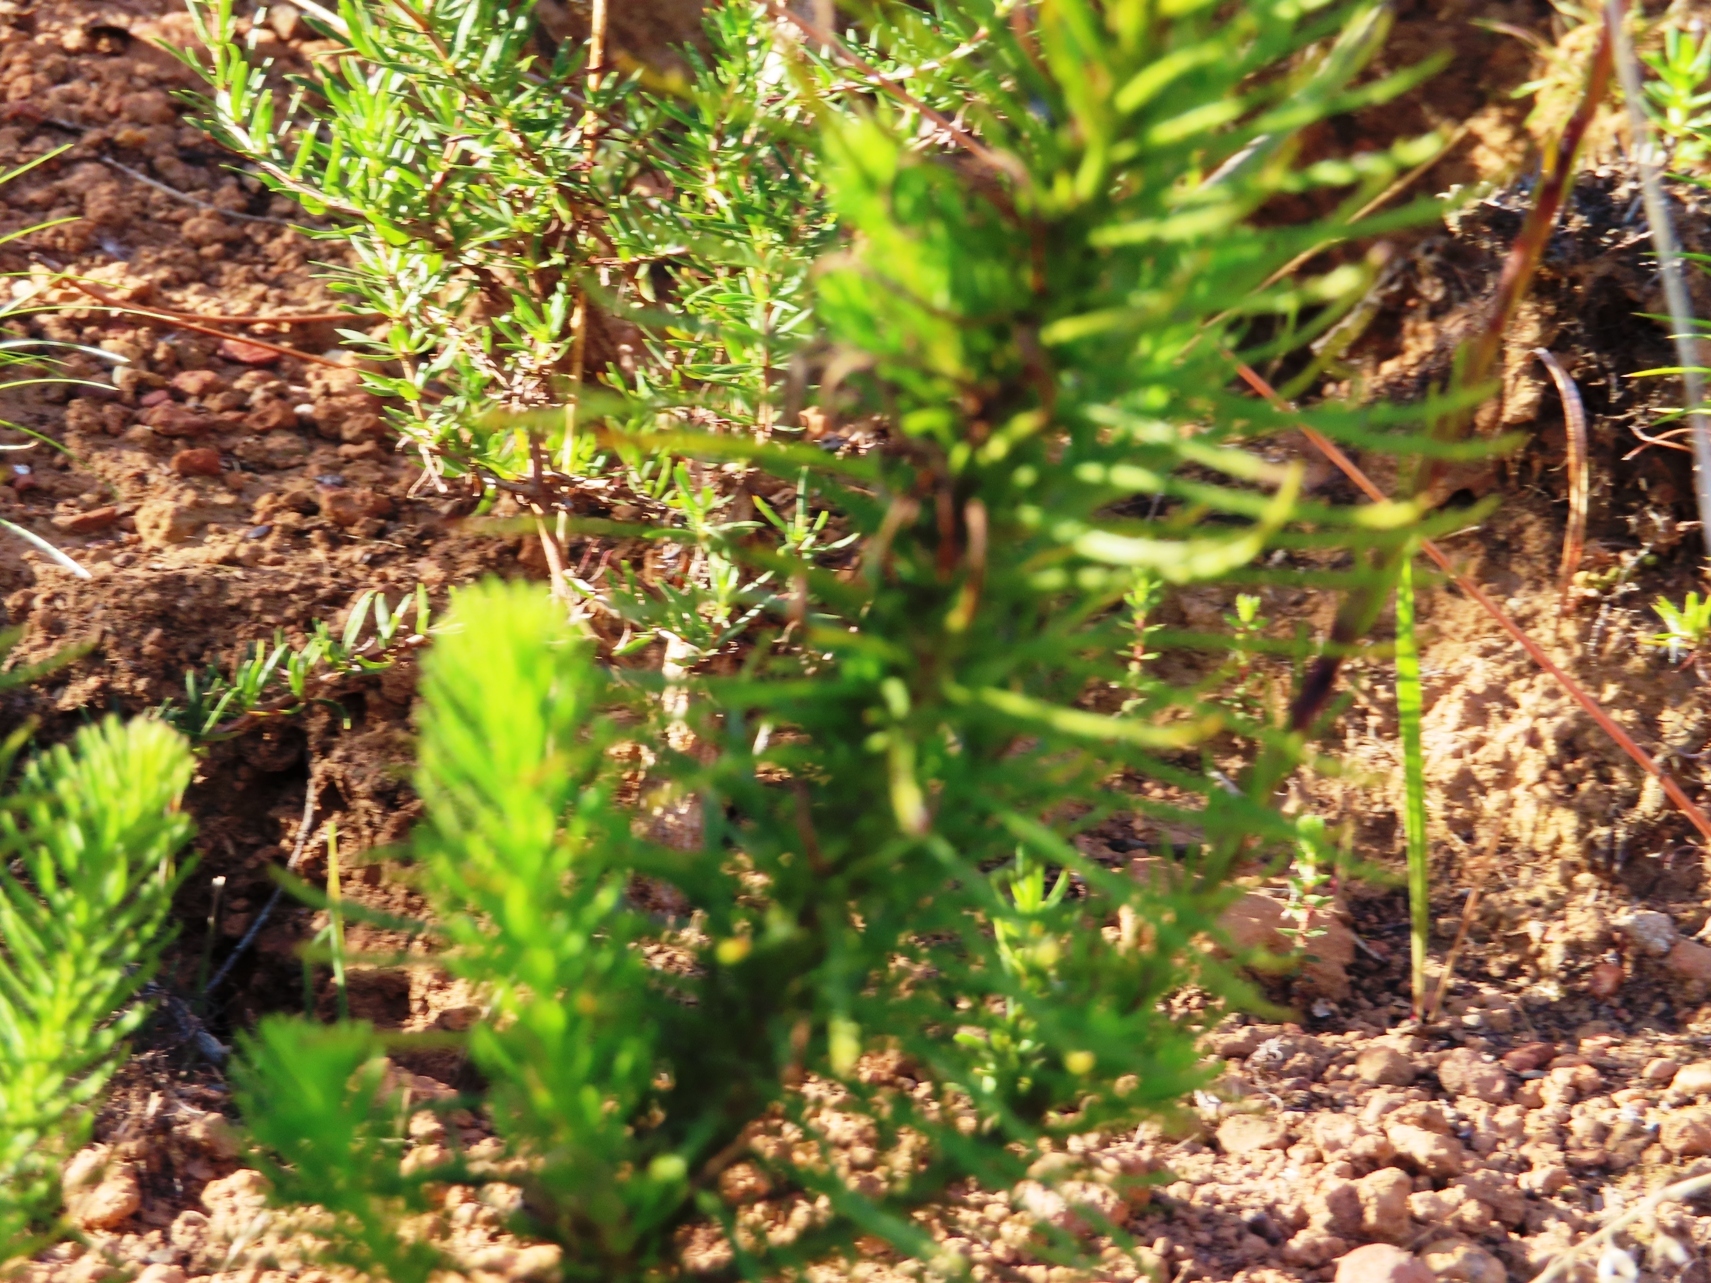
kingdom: Plantae
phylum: Tracheophyta
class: Magnoliopsida
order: Lamiales
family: Scrophulariaceae
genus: Pseudoselago
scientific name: Pseudoselago spuria
